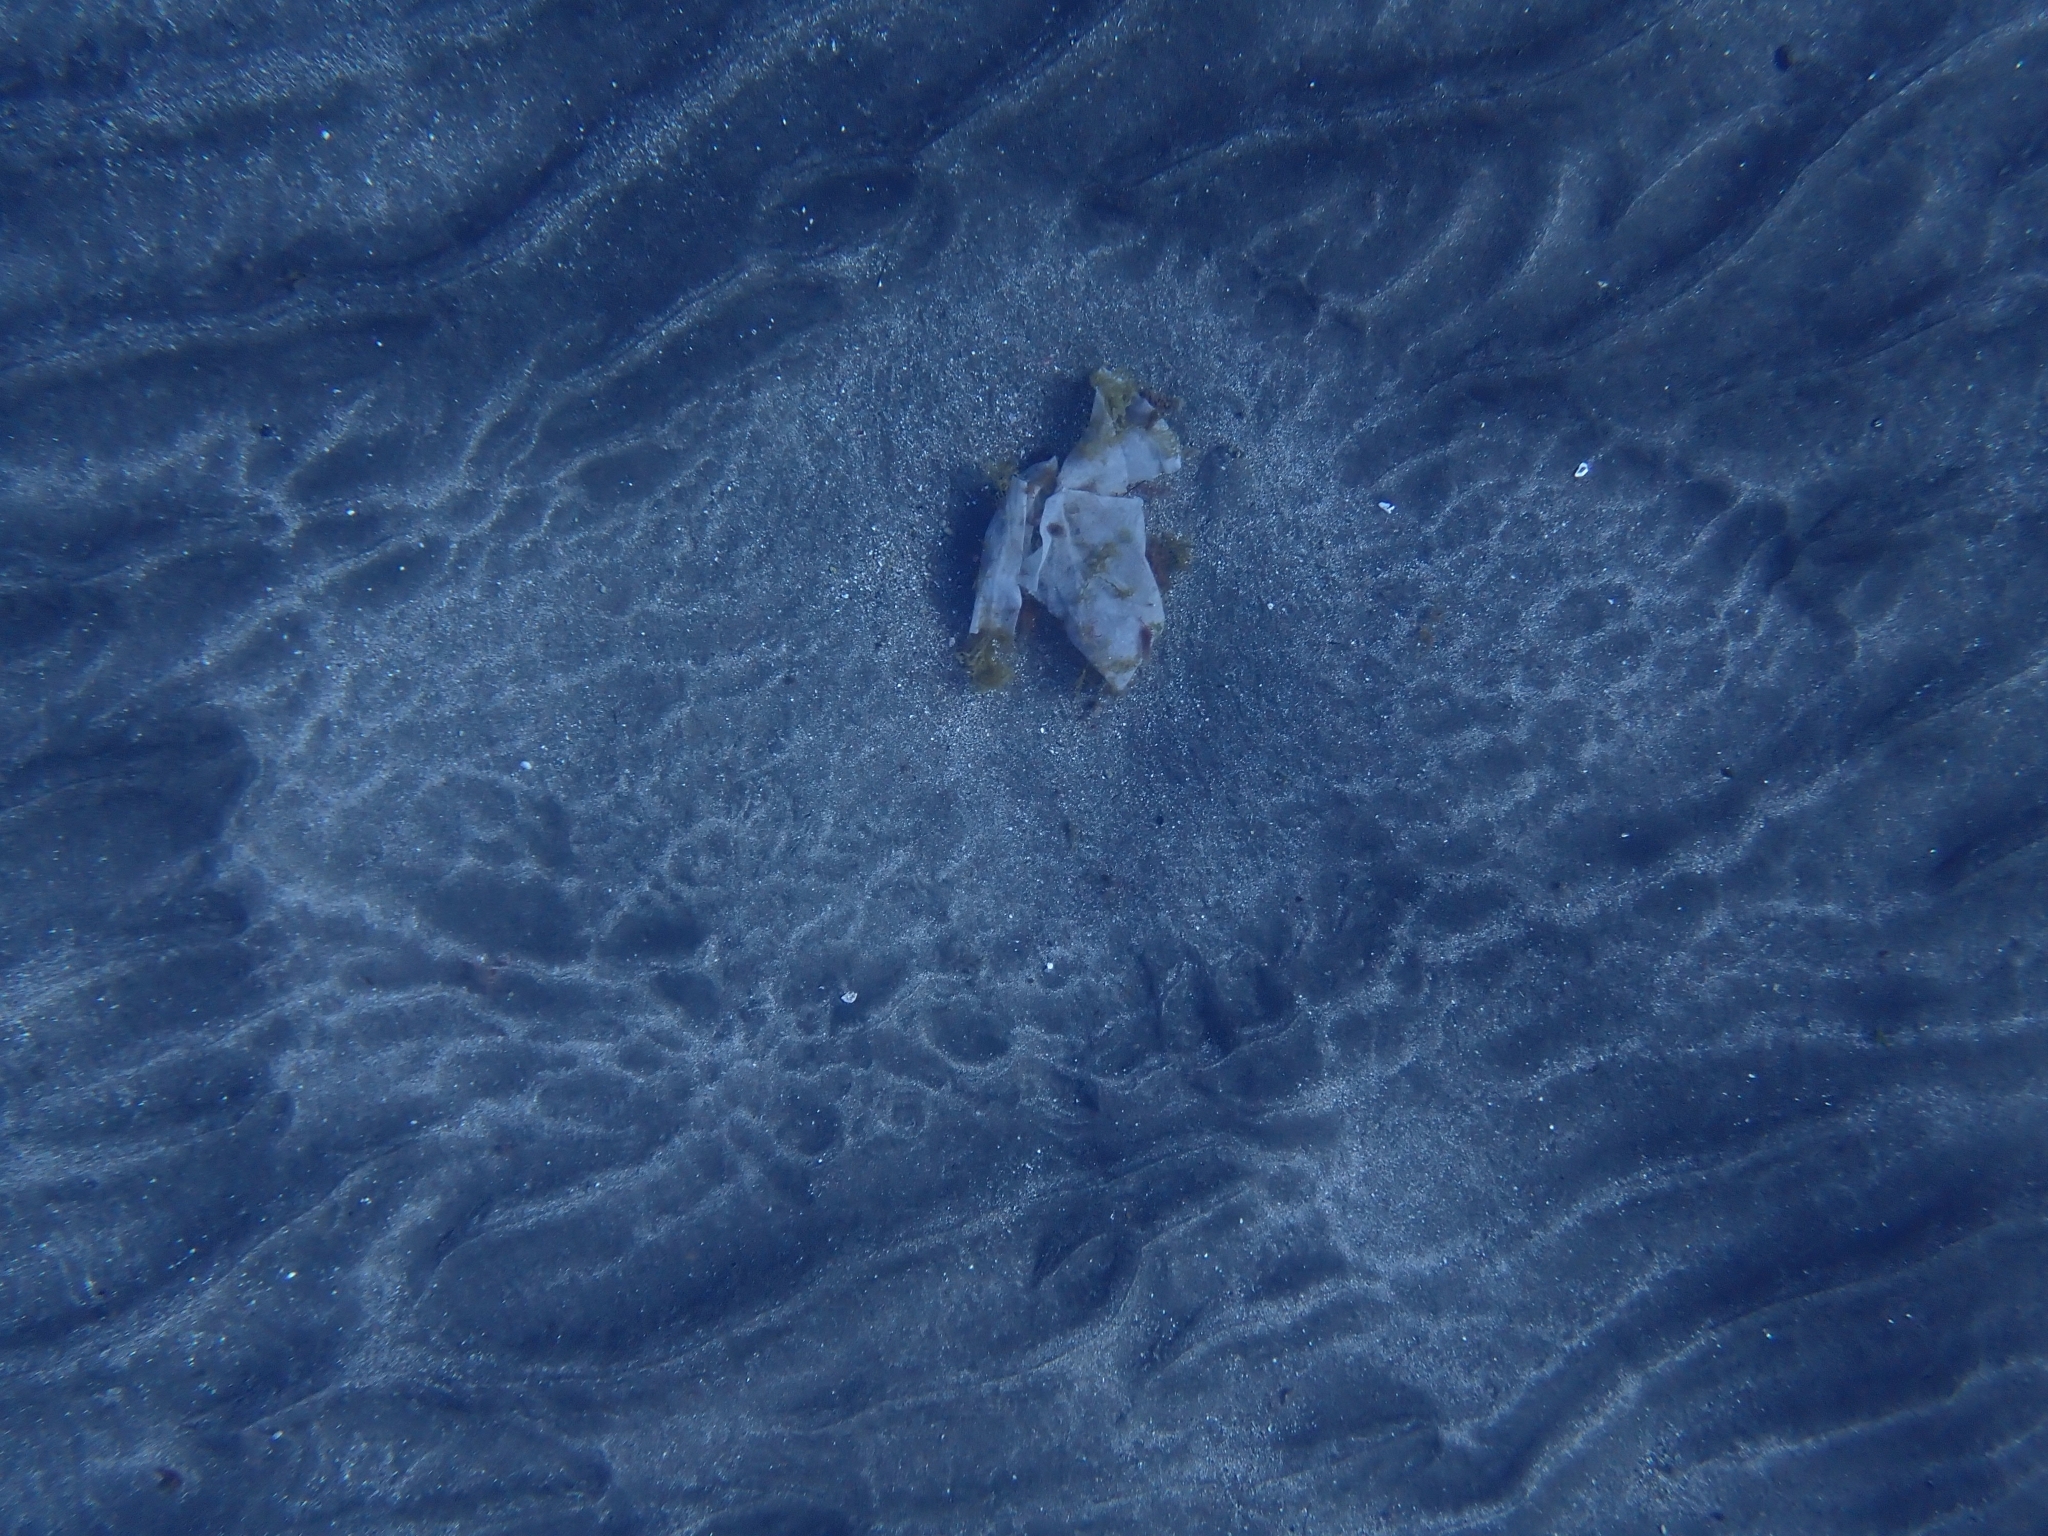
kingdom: Animalia
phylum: Chordata
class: Elasmobranchii
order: Myliobatiformes
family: Gymnuridae
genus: Gymnura
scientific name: Gymnura altavela
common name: Spiny butterfly ray
